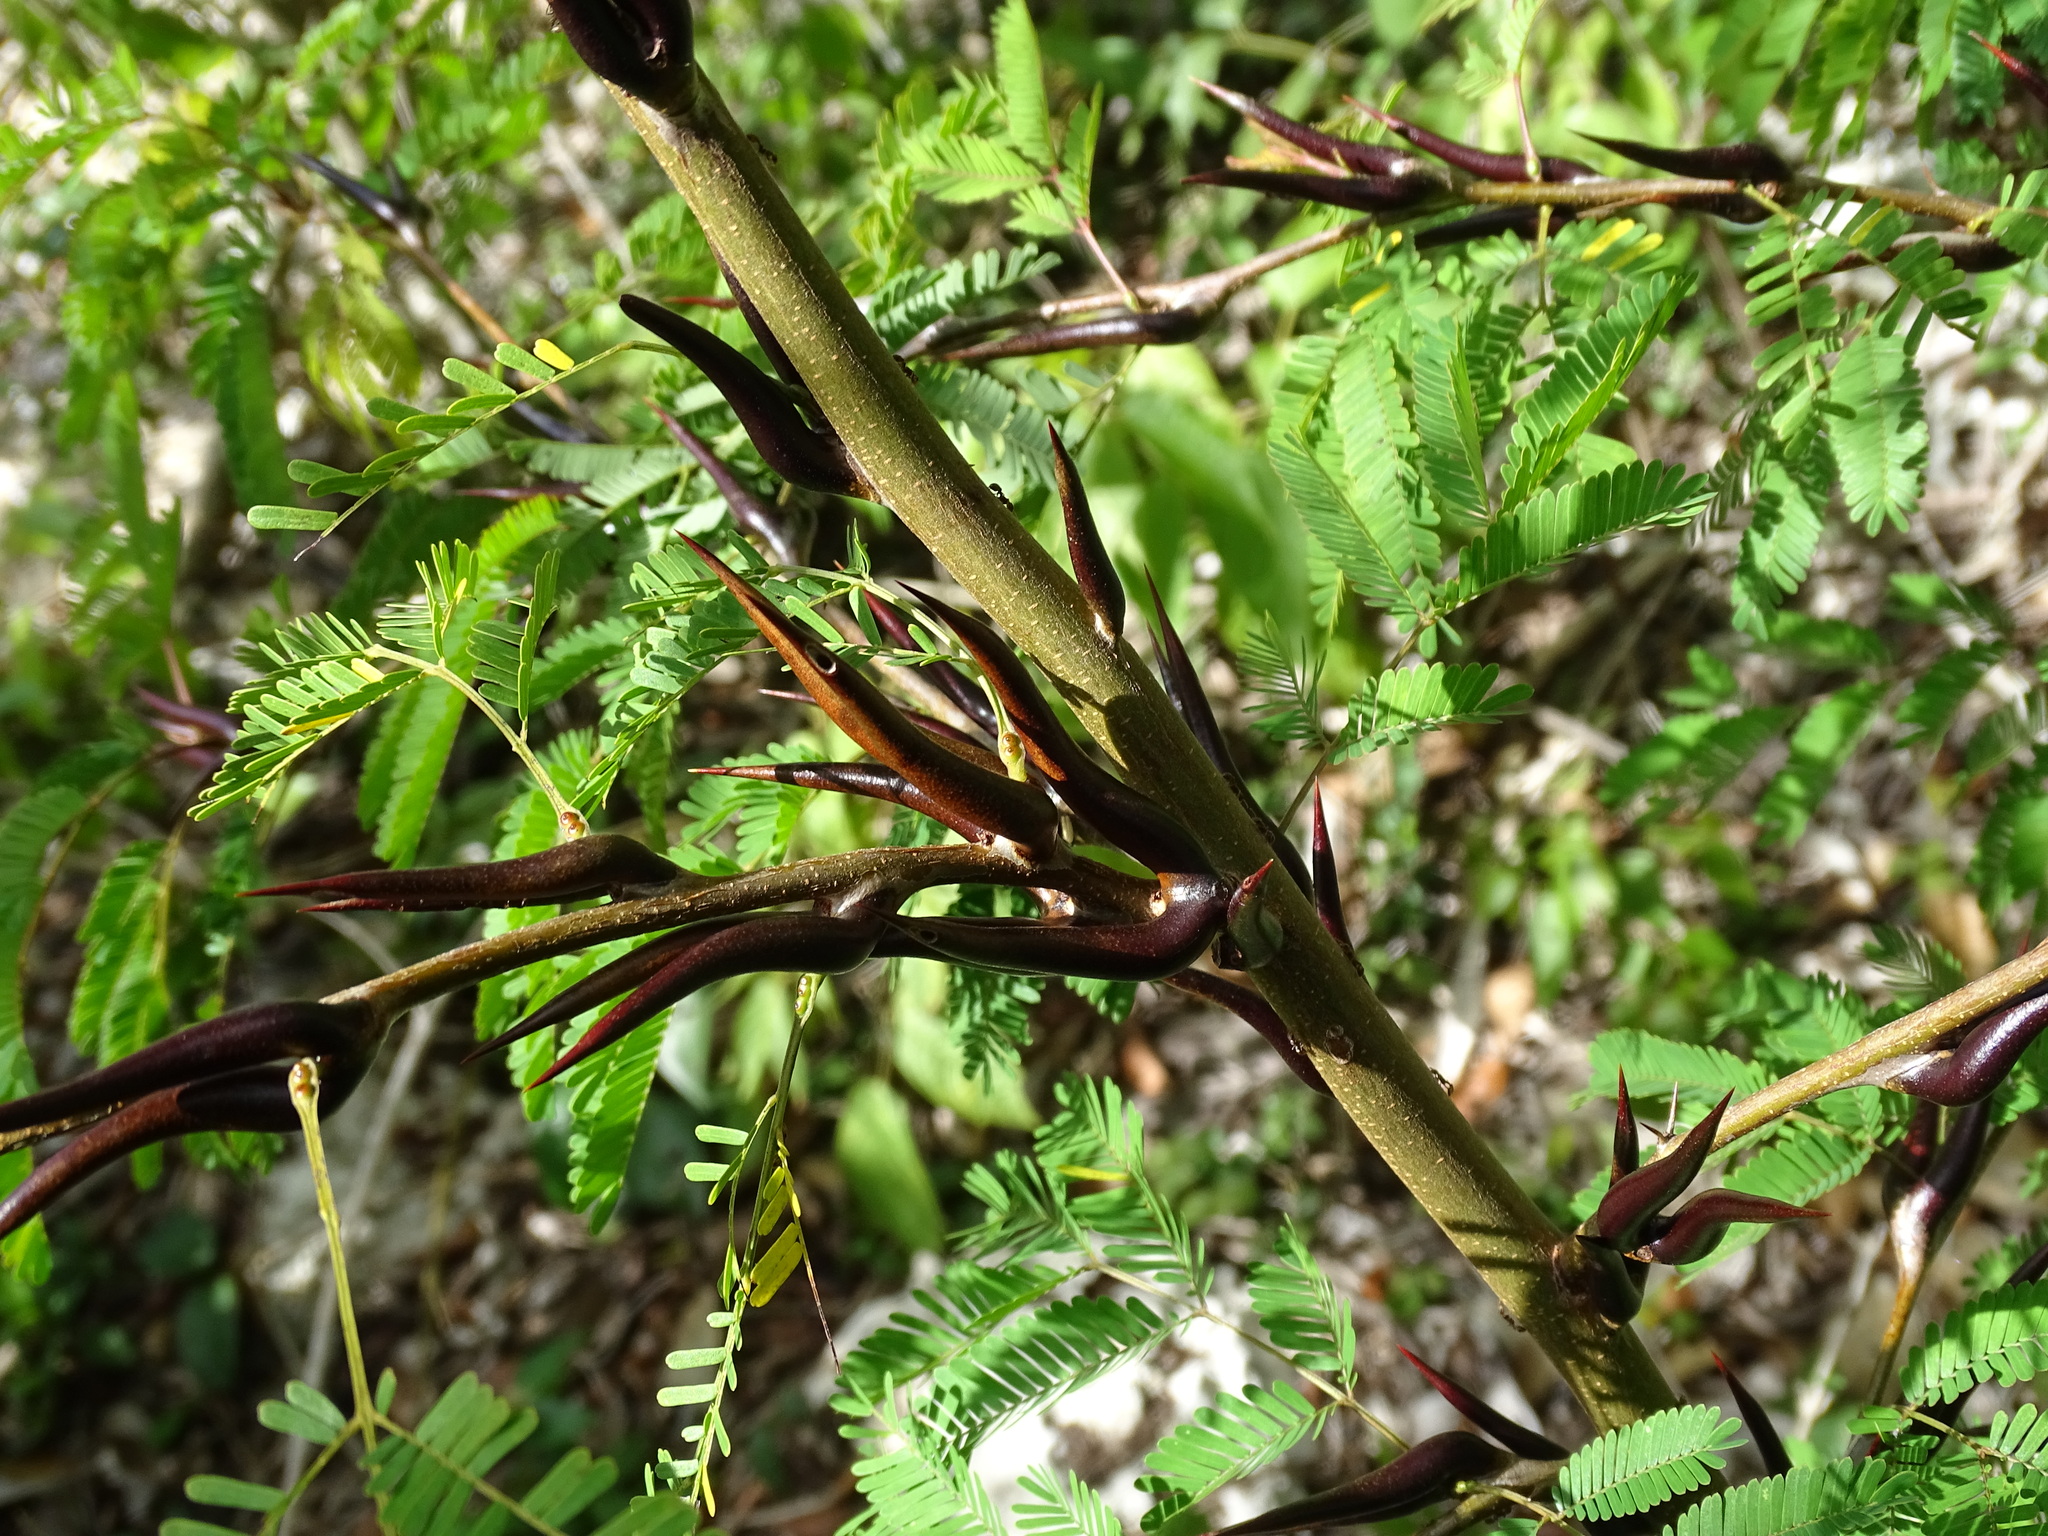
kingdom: Plantae
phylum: Tracheophyta
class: Magnoliopsida
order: Fabales
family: Fabaceae
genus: Vachellia
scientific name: Vachellia cornigera
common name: Bullhorn wattle
